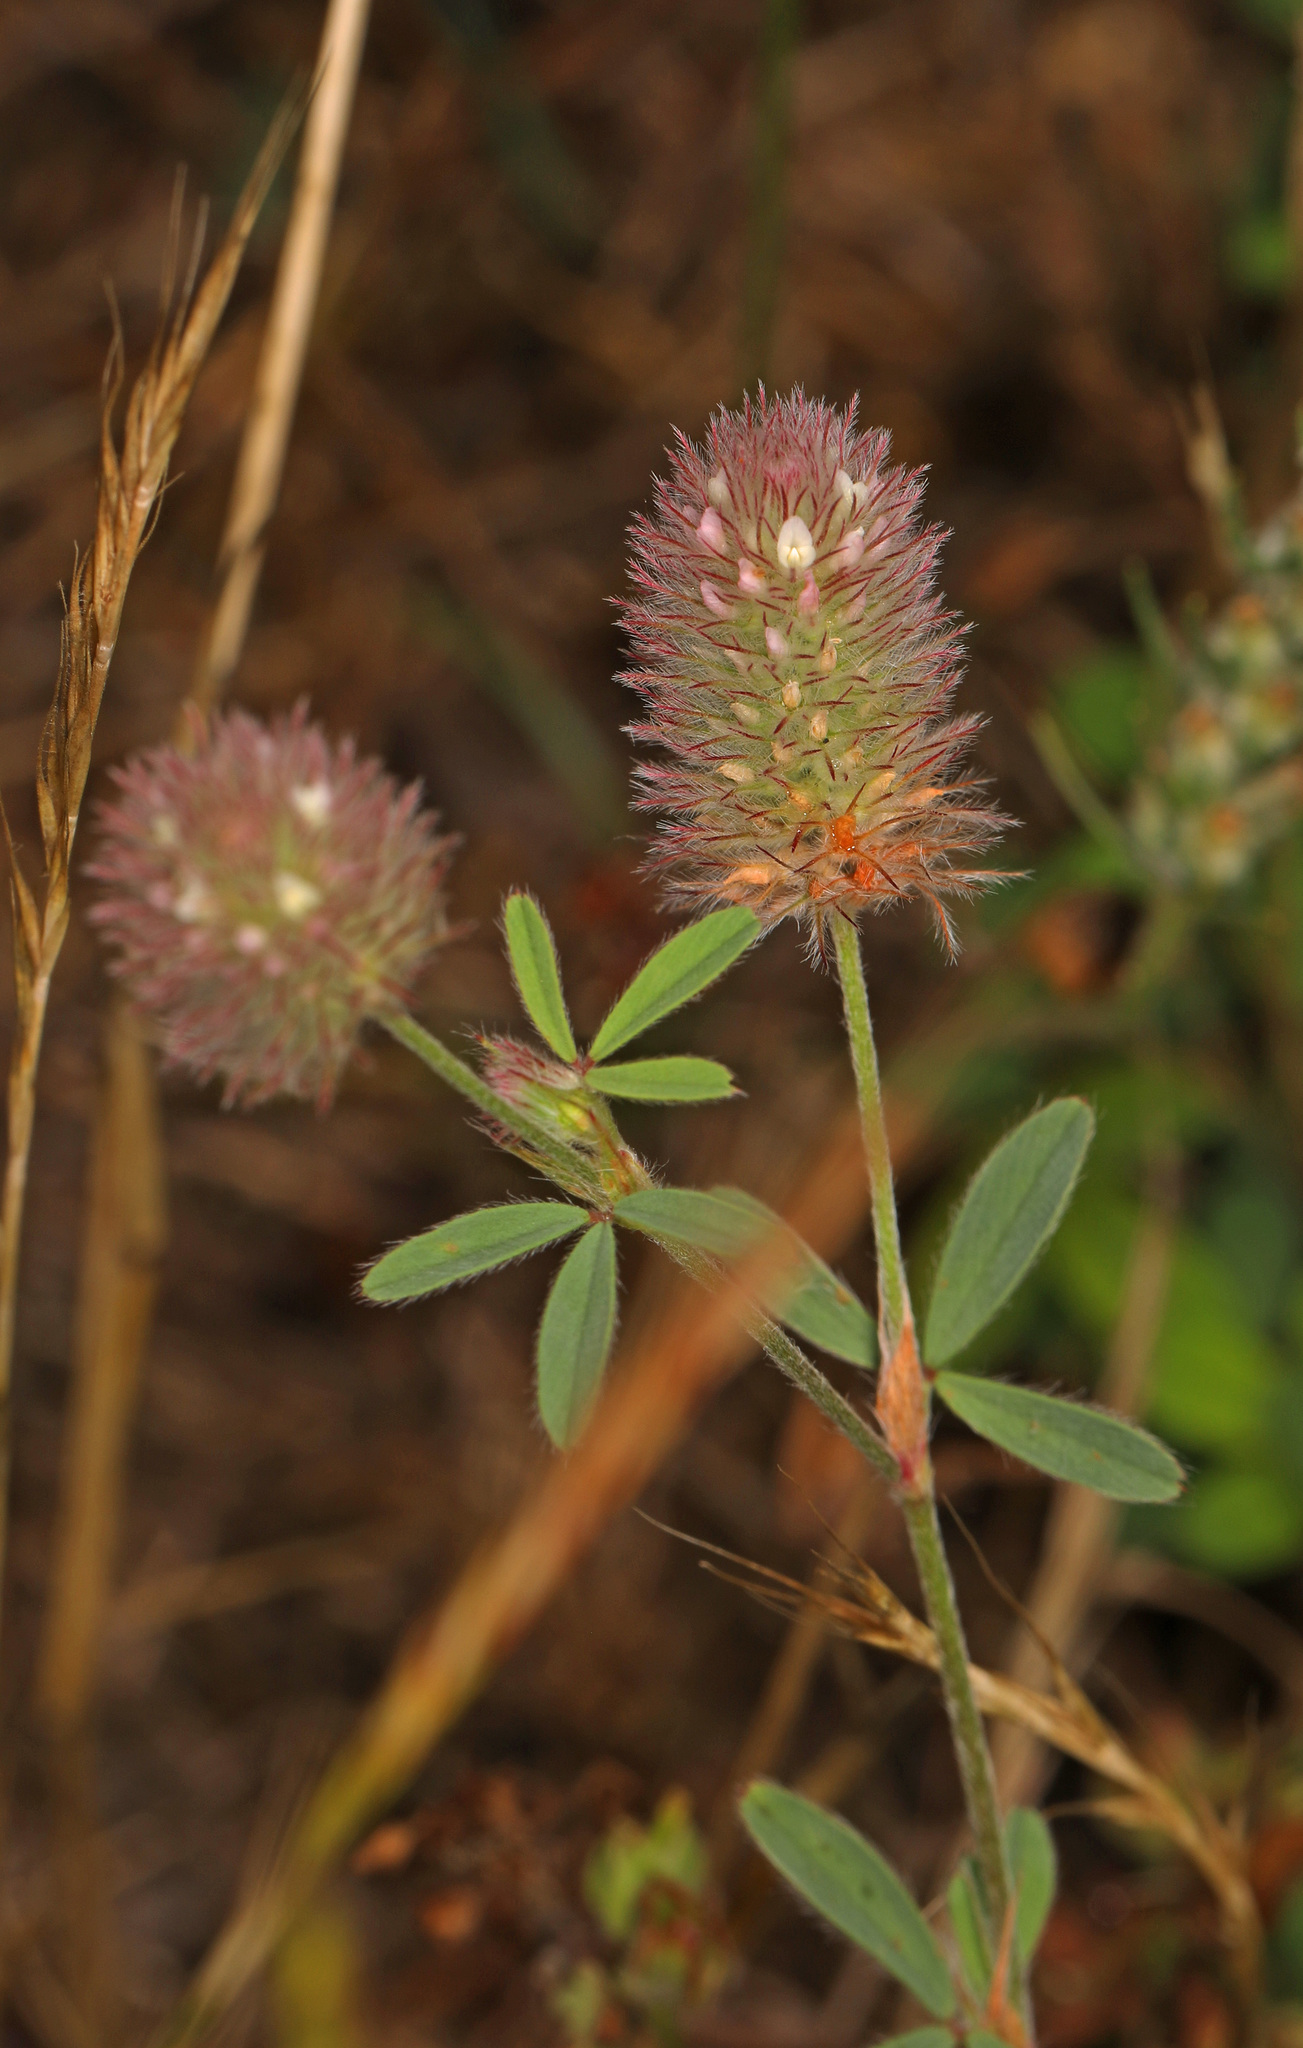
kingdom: Plantae
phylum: Tracheophyta
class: Magnoliopsida
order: Fabales
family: Fabaceae
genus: Trifolium
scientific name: Trifolium arvense
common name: Hare's-foot clover
